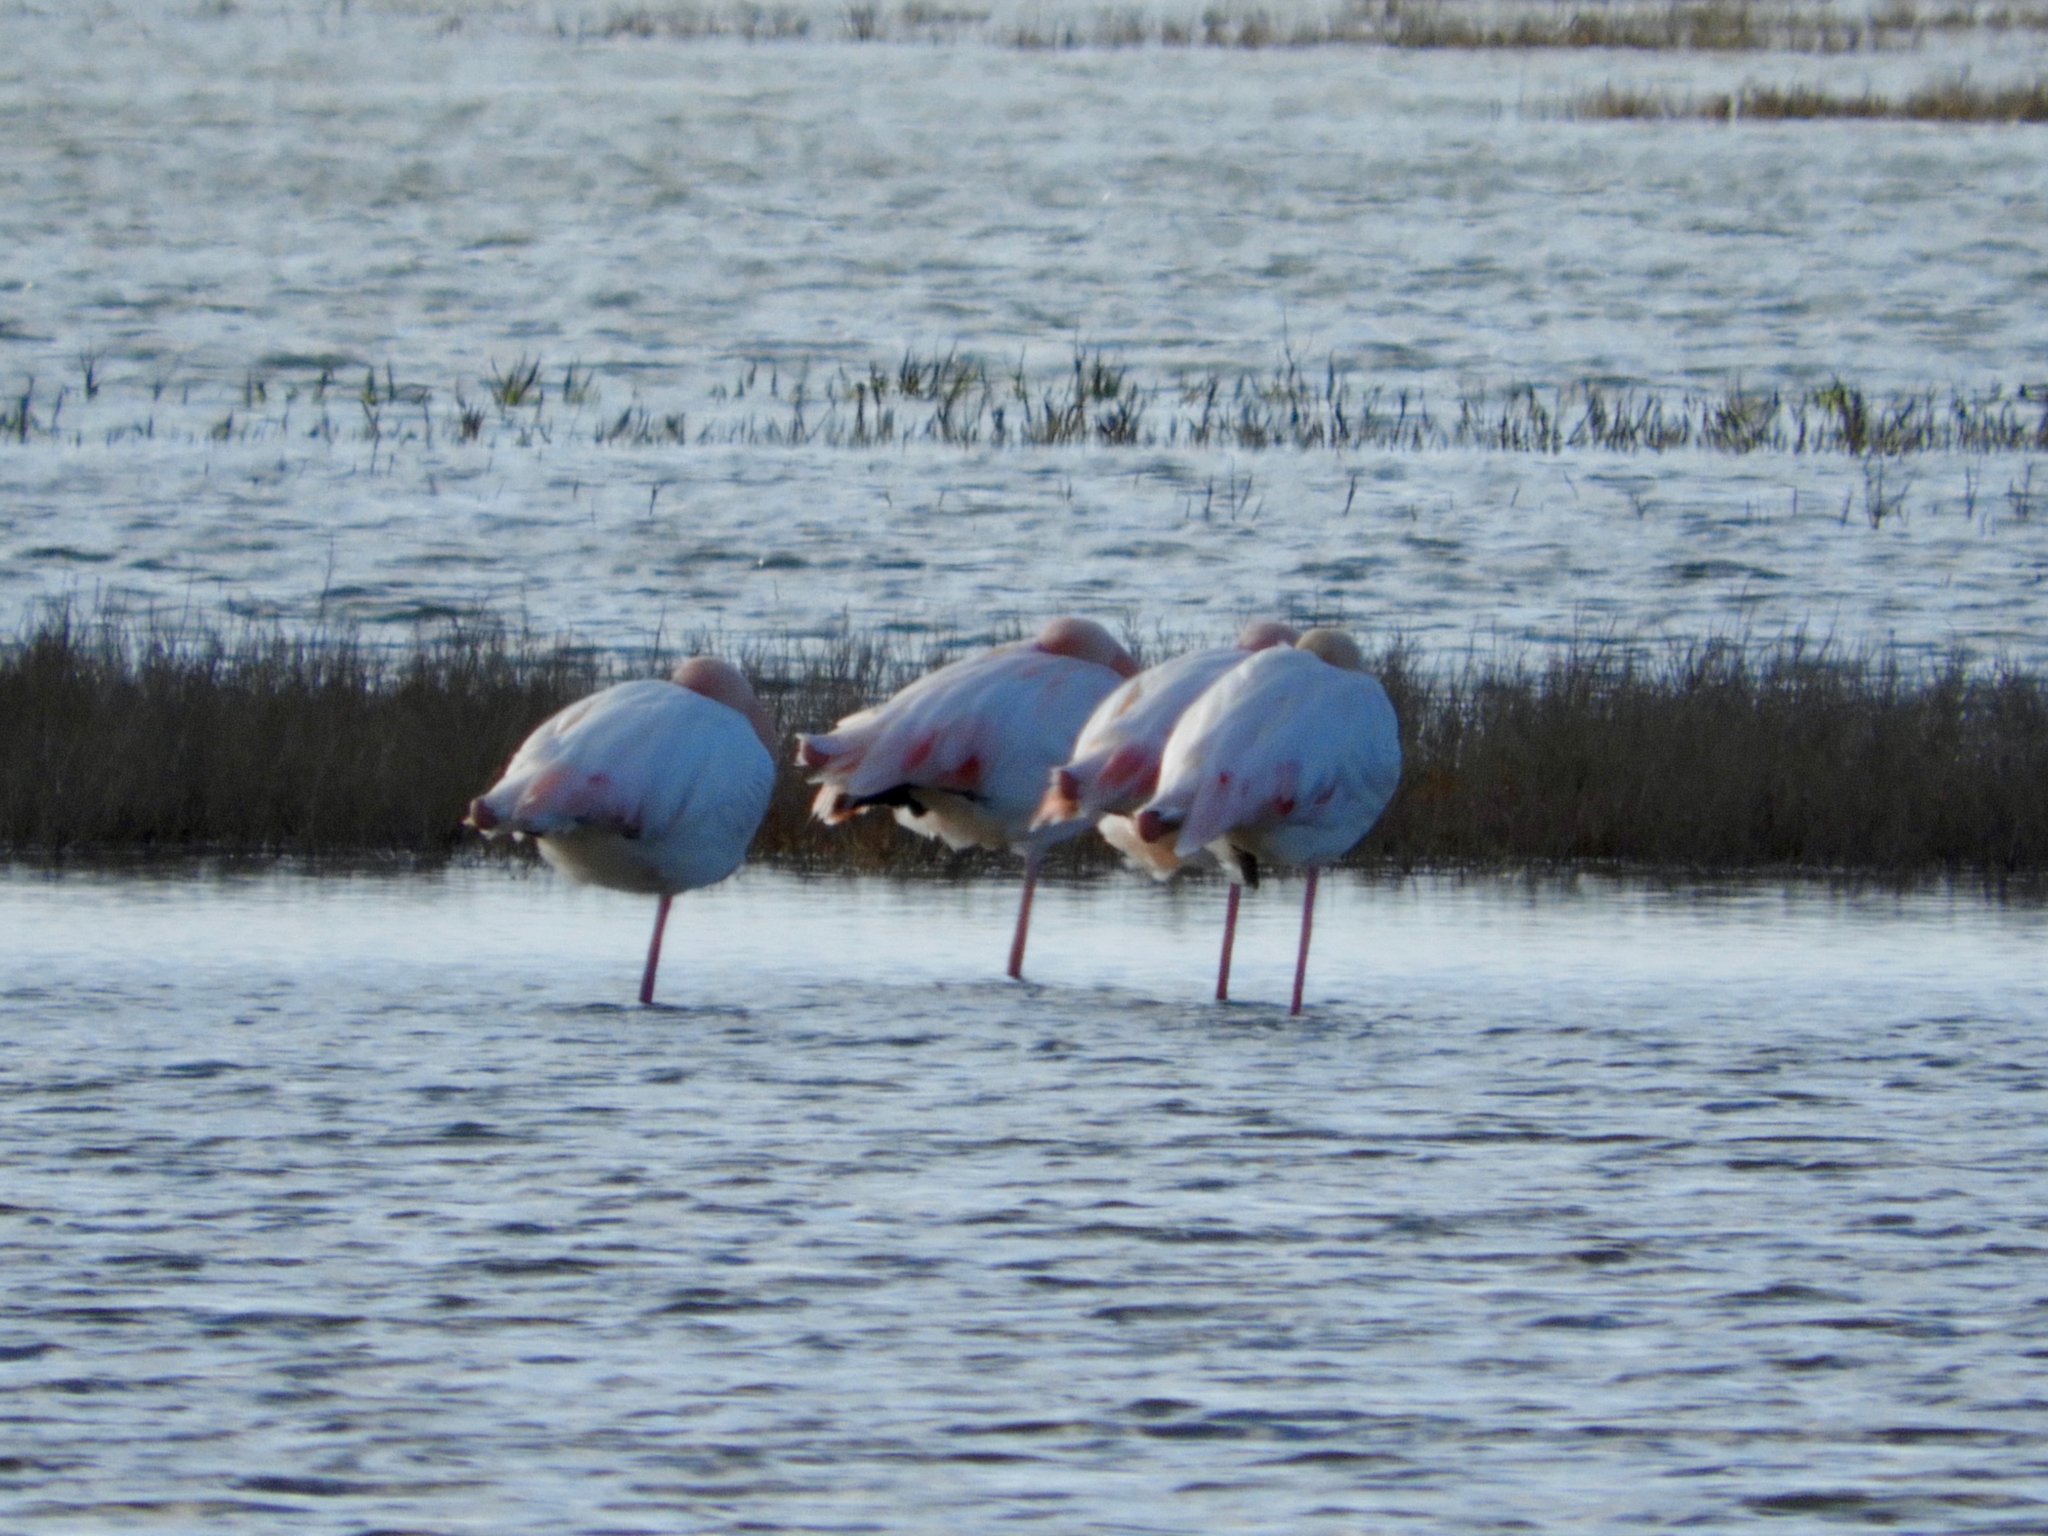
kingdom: Animalia
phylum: Chordata
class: Aves
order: Phoenicopteriformes
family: Phoenicopteridae
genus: Phoenicopterus
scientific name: Phoenicopterus roseus
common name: Greater flamingo
